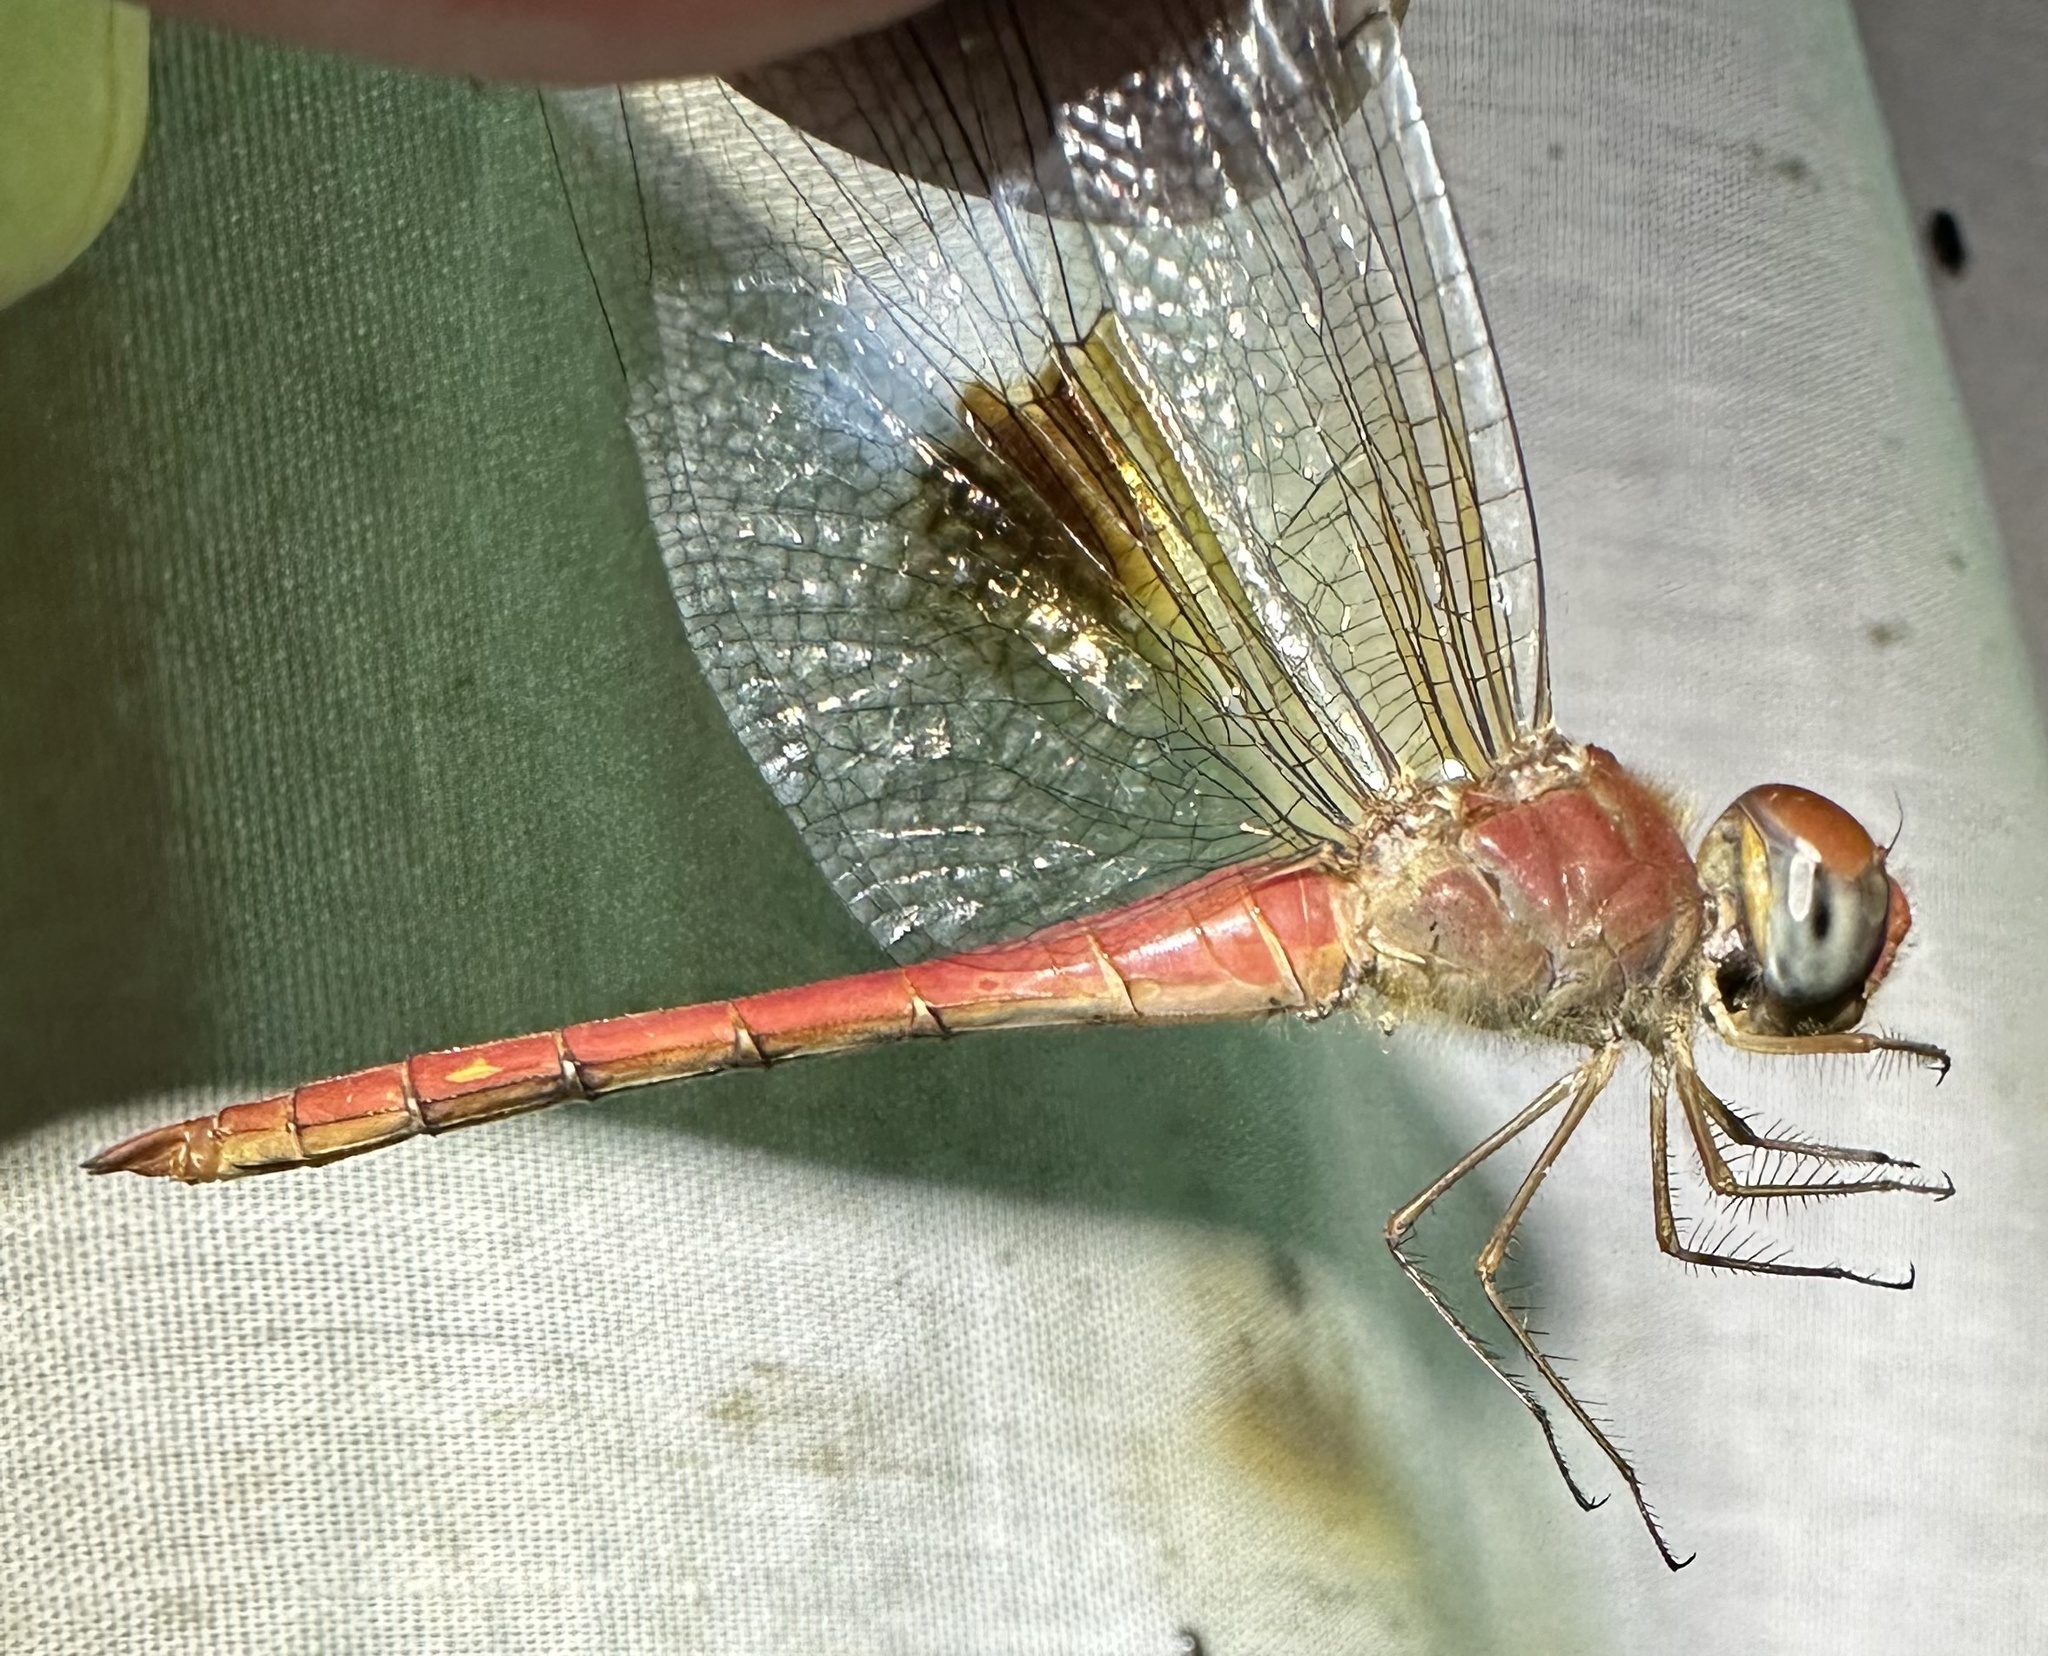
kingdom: Animalia
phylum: Arthropoda
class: Insecta
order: Odonata
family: Libellulidae
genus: Tholymis
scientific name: Tholymis tillarga
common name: Coral-tailed cloud wing
